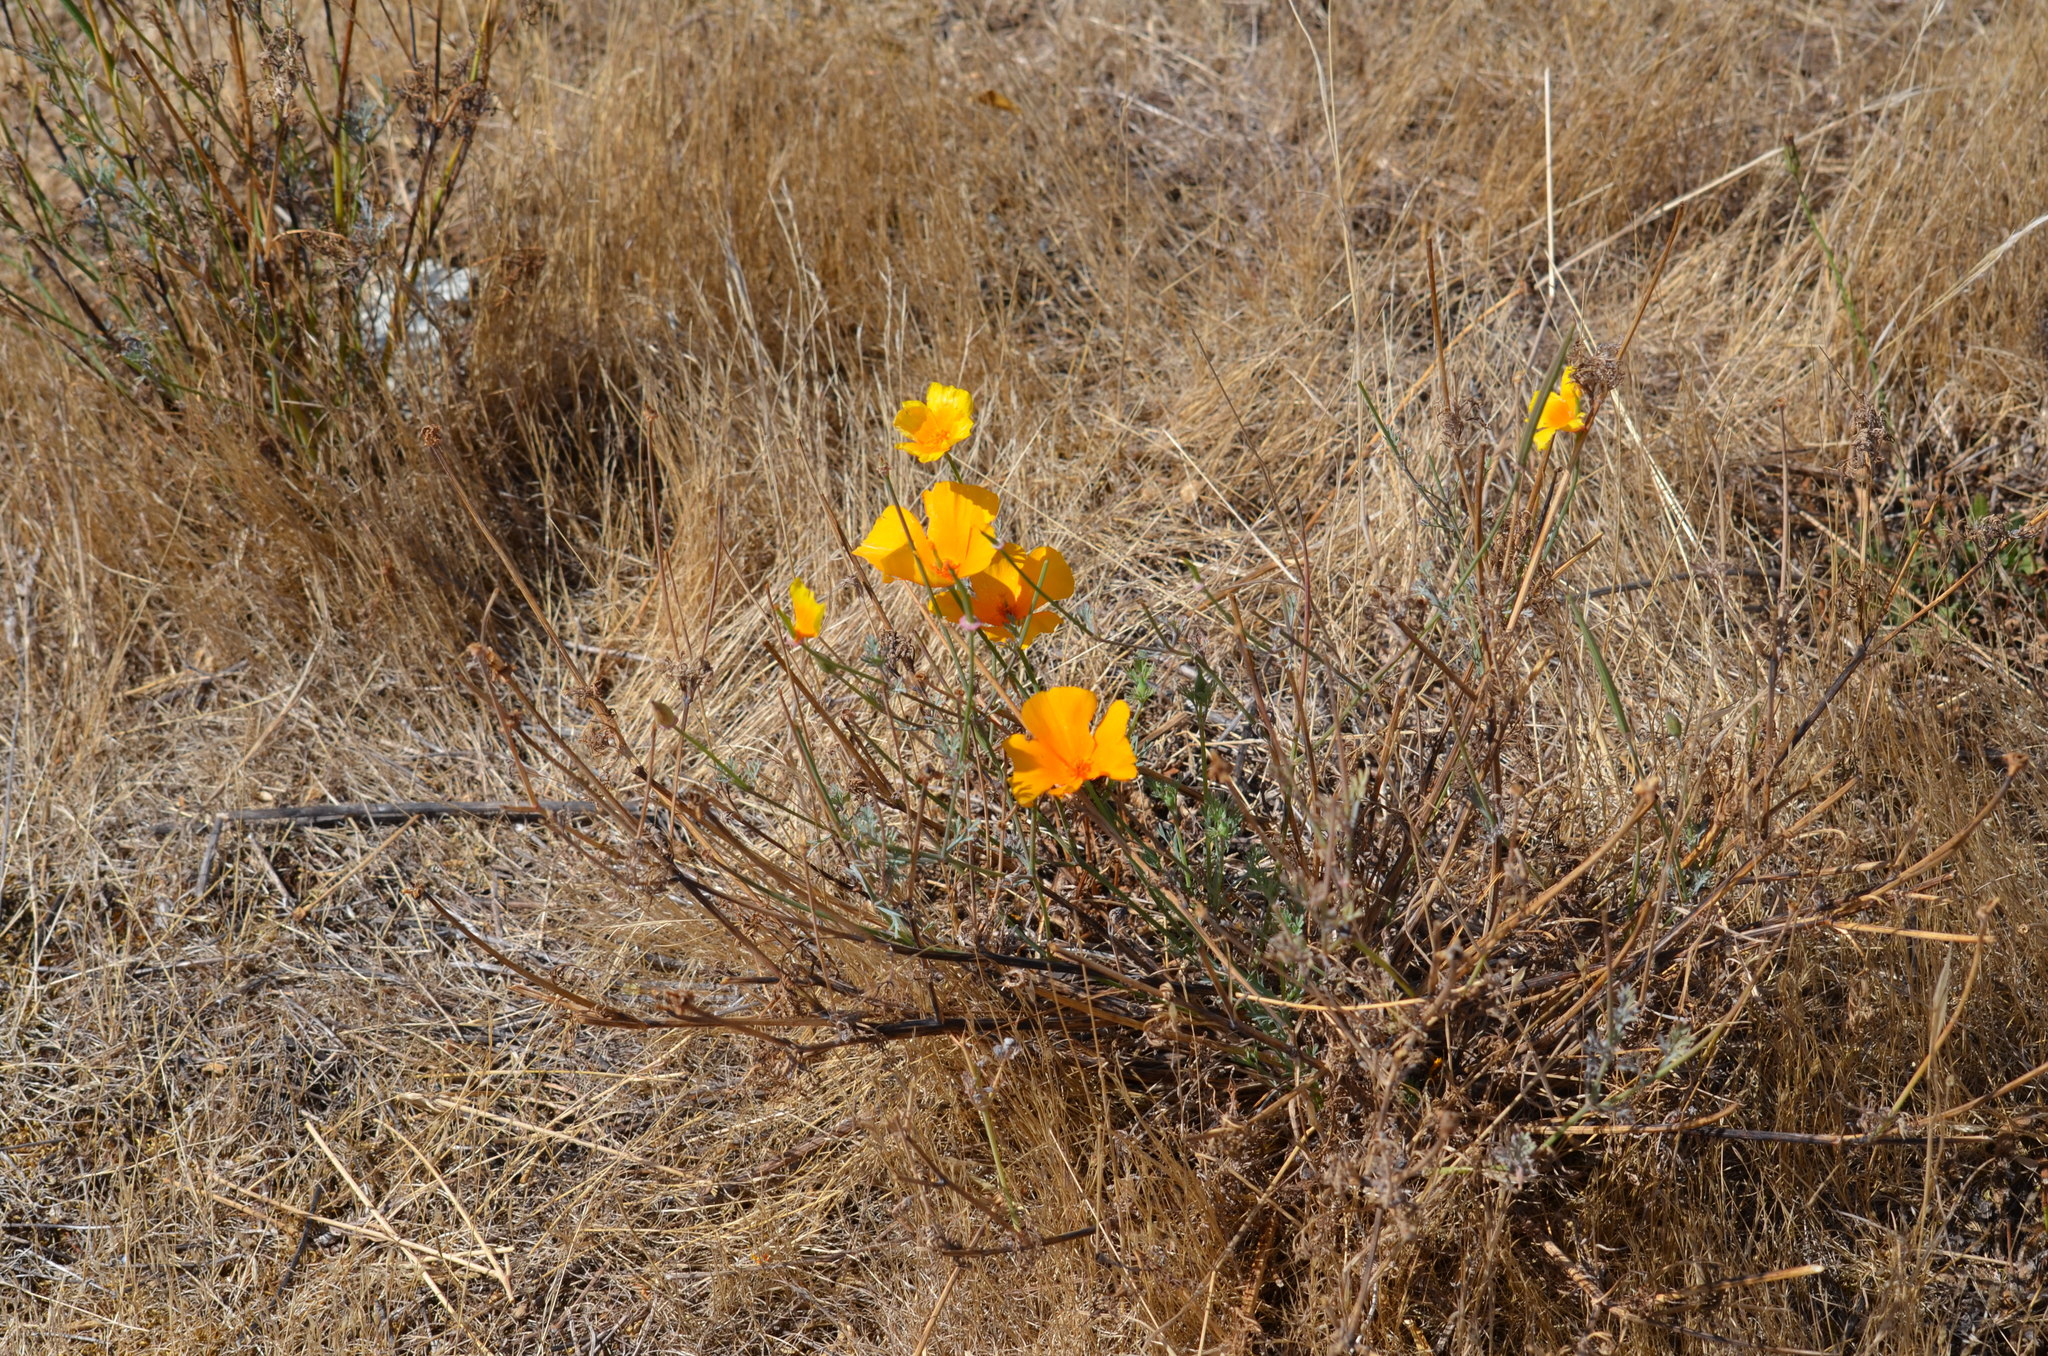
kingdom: Plantae
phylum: Tracheophyta
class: Magnoliopsida
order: Ranunculales
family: Papaveraceae
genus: Eschscholzia
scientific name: Eschscholzia californica
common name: California poppy
